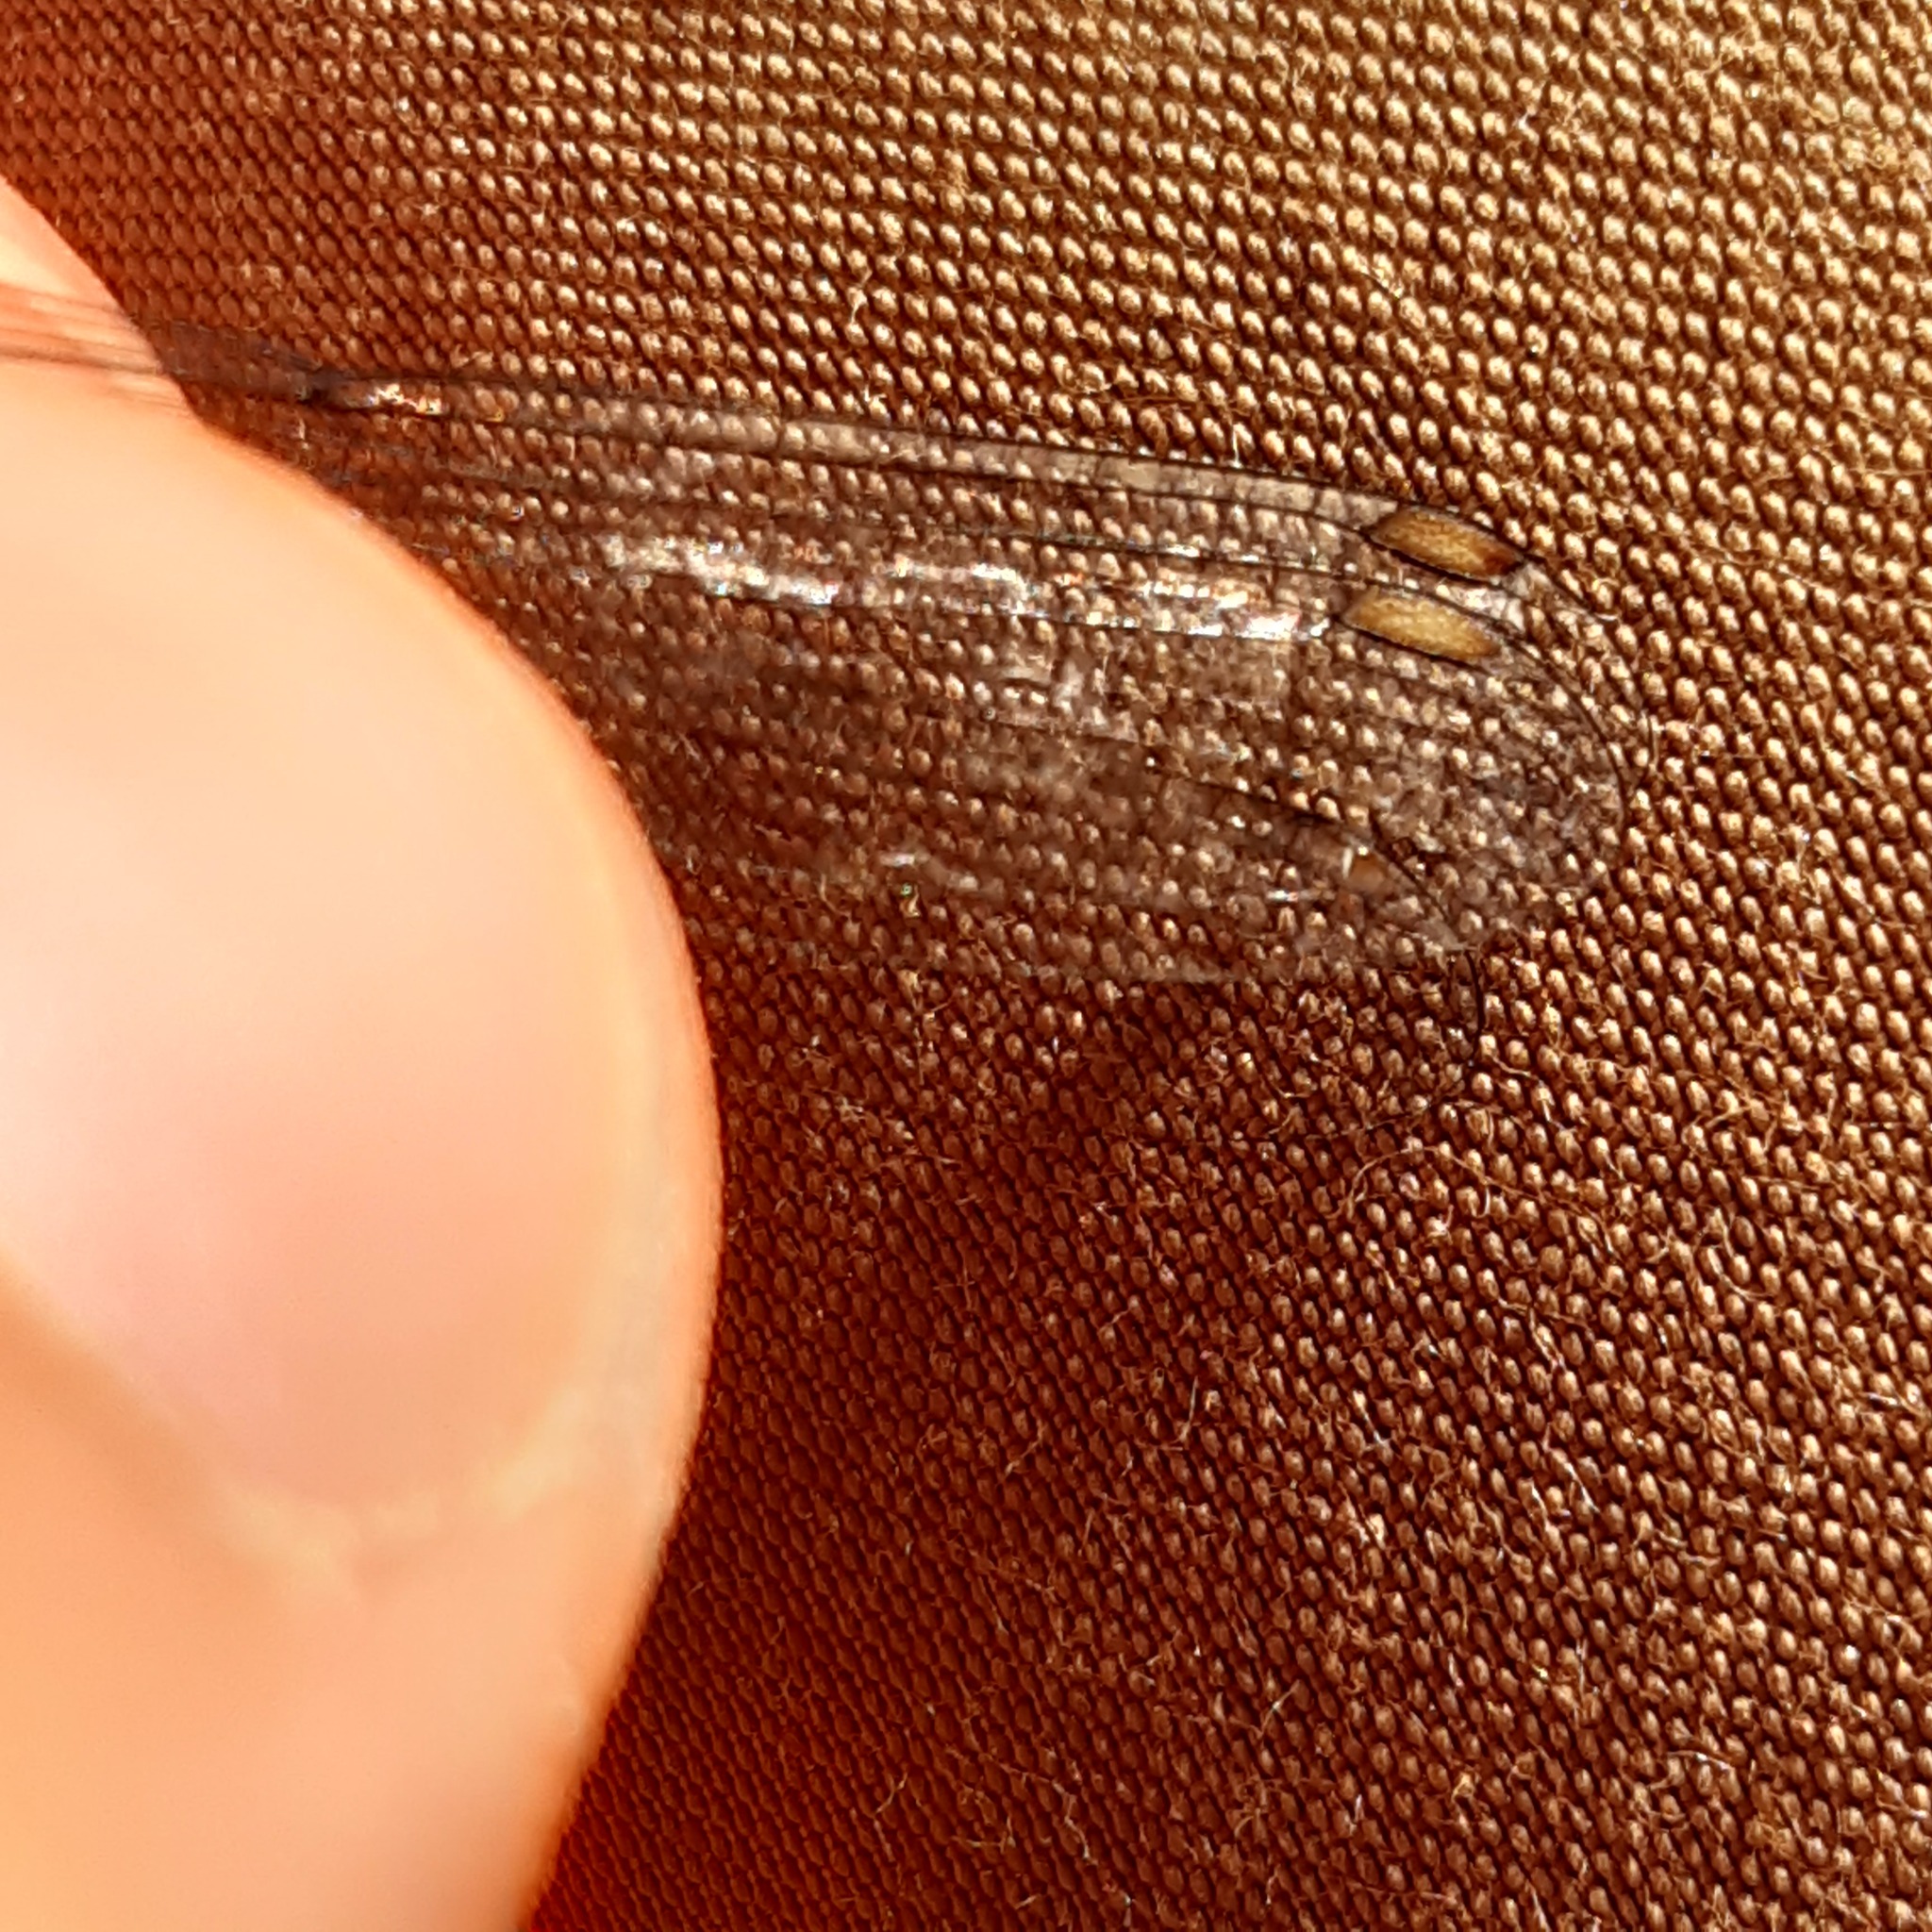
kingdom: Animalia
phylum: Arthropoda
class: Insecta
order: Odonata
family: Lestidae
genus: Chalcolestes
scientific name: Chalcolestes viridis
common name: Green emerald damselfly
